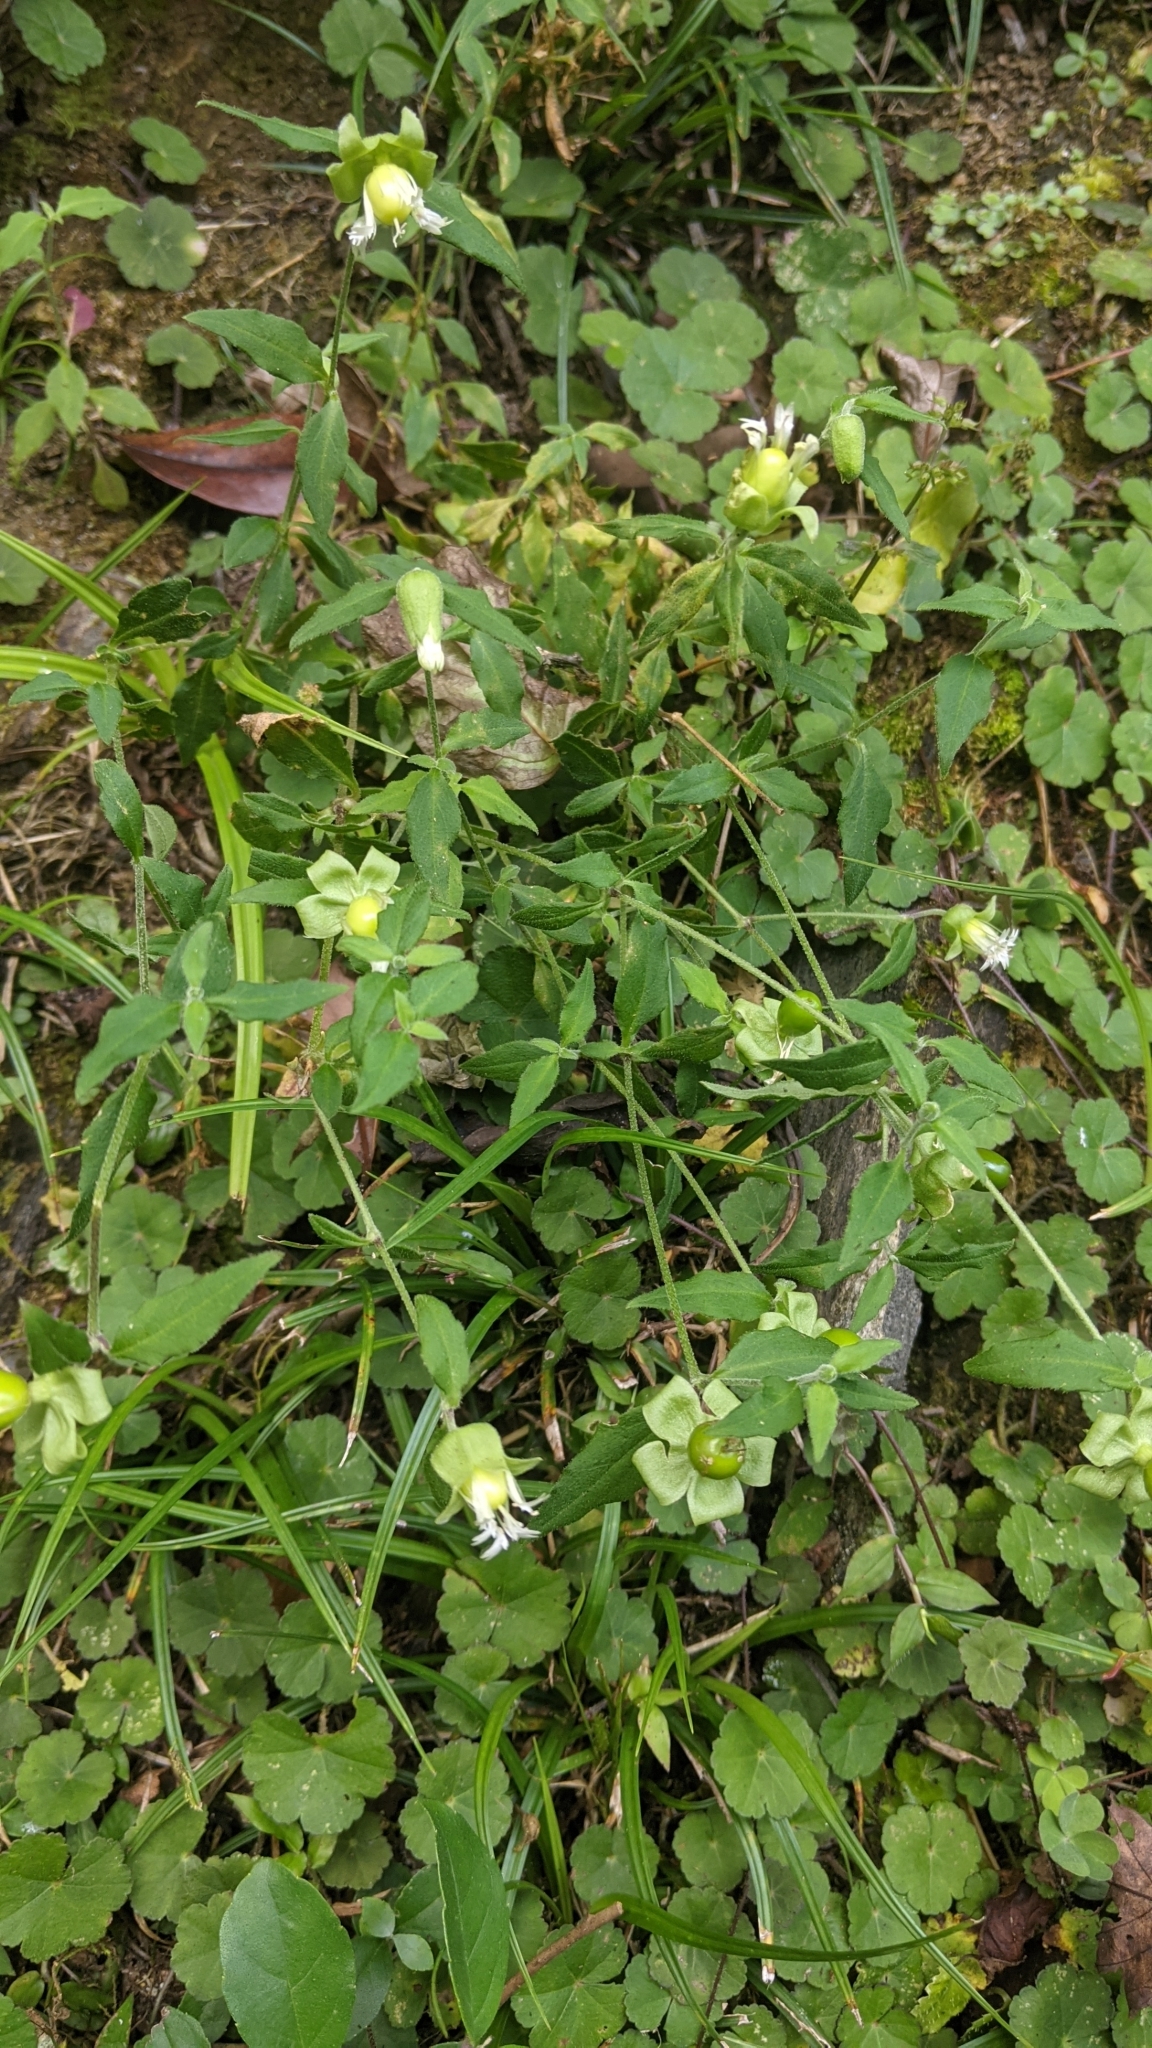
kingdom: Plantae
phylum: Tracheophyta
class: Magnoliopsida
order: Caryophyllales
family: Caryophyllaceae
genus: Silene
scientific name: Silene baccifera
